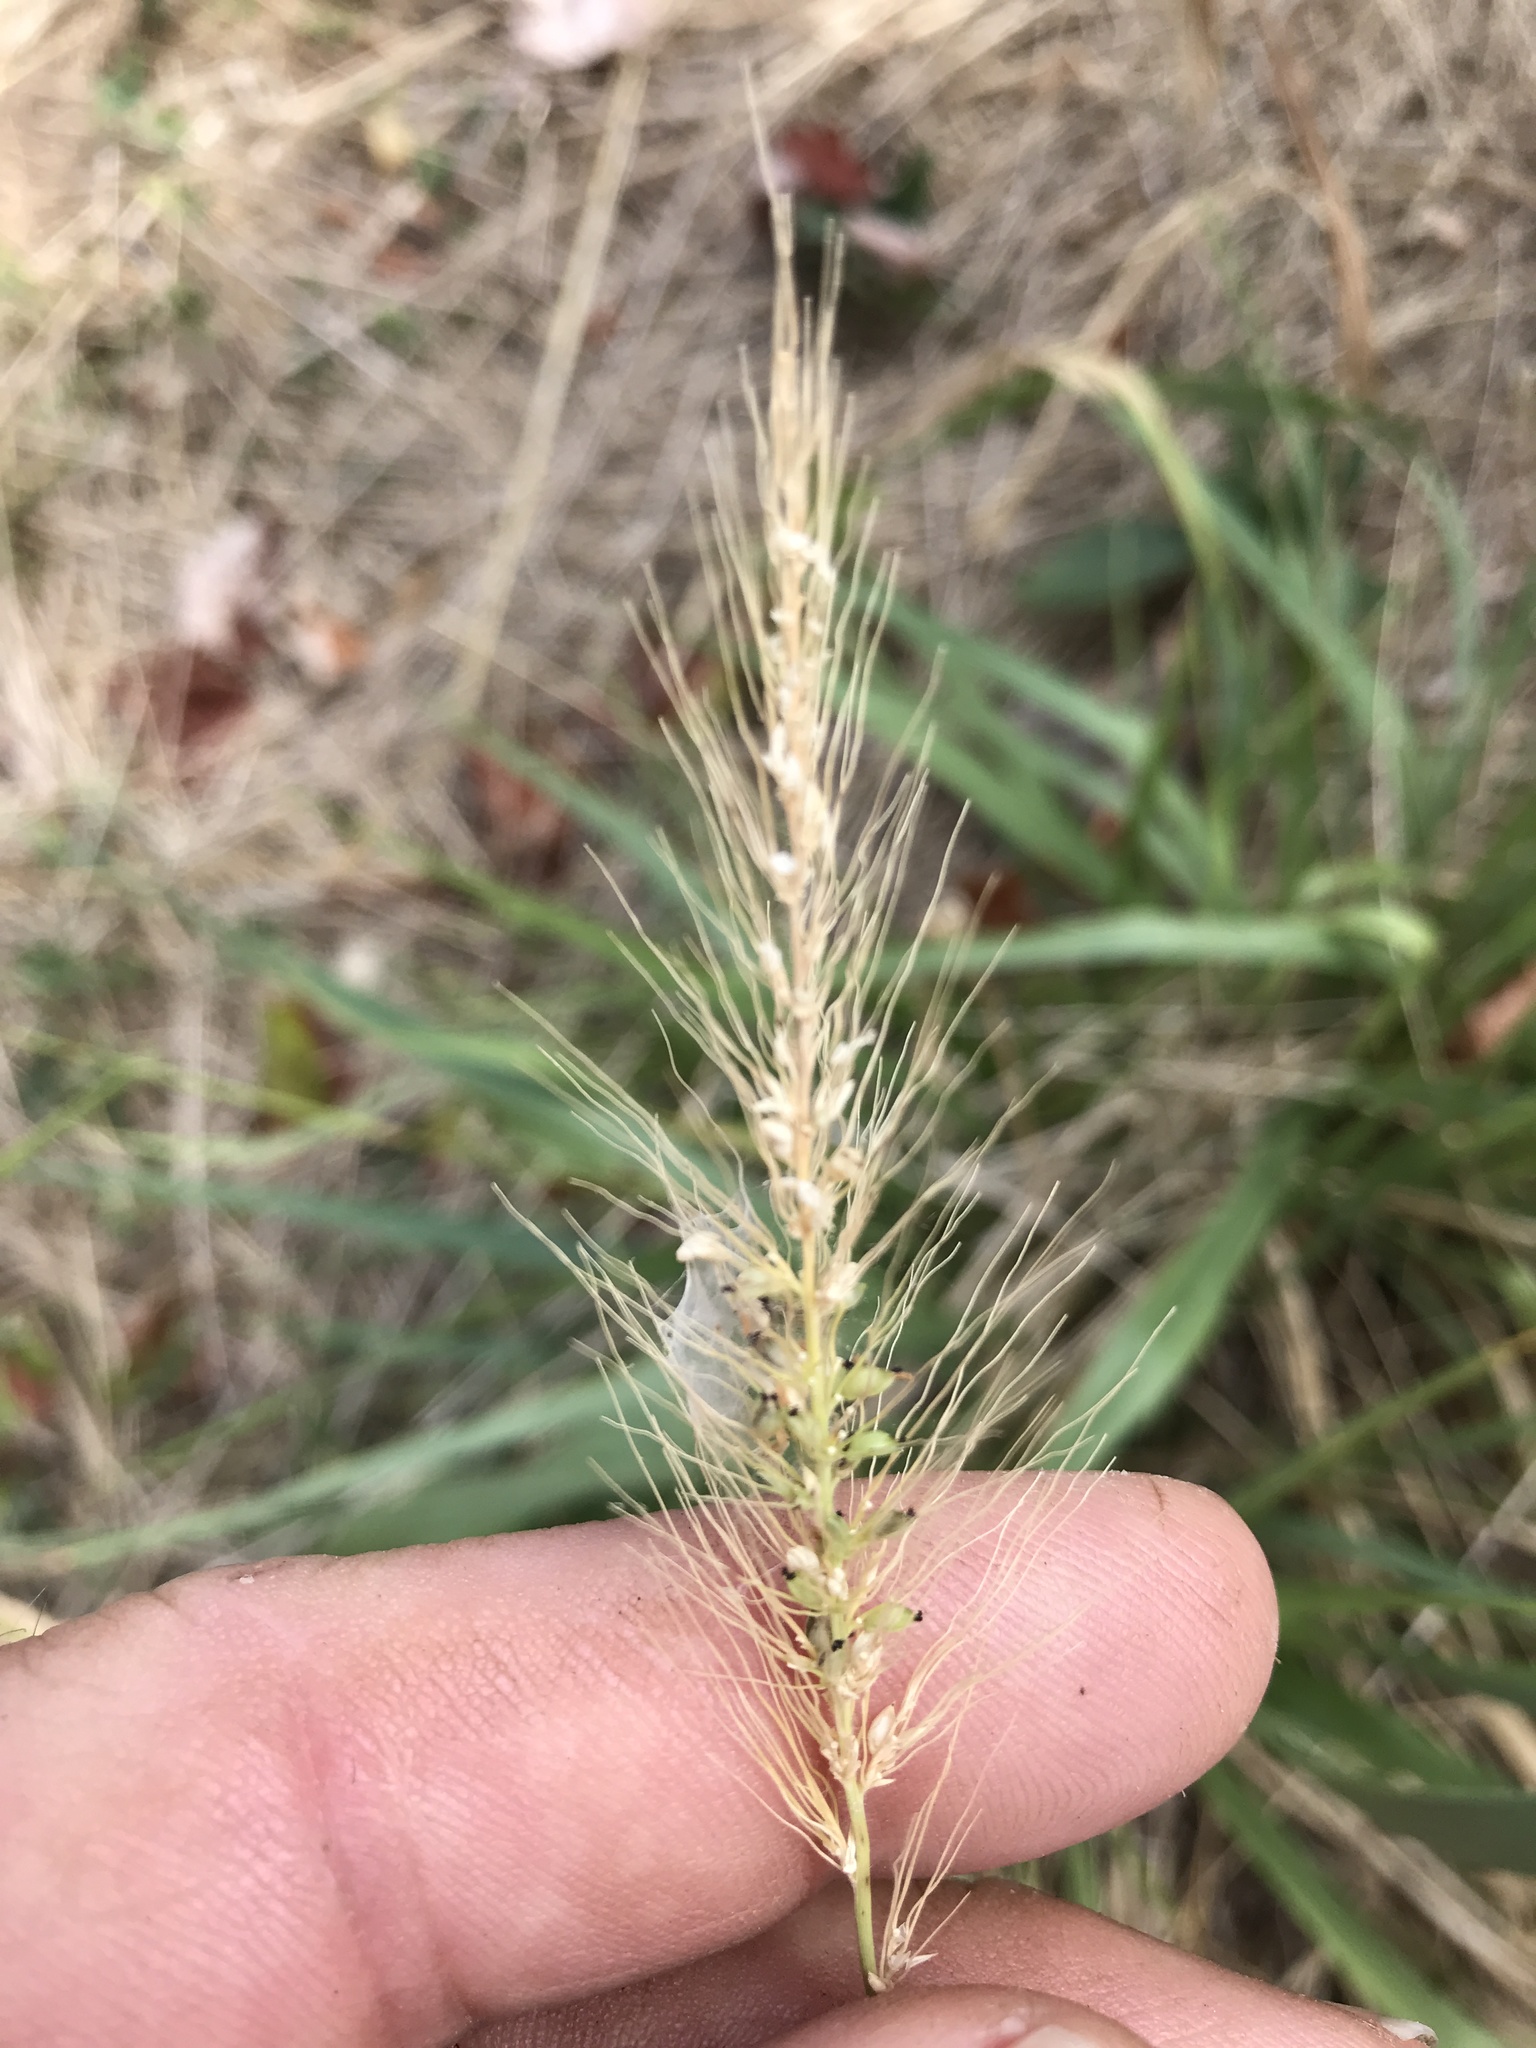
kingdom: Plantae
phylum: Tracheophyta
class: Liliopsida
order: Poales
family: Poaceae
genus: Setaria
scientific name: Setaria scheelei
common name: Southwestern bristle grass
